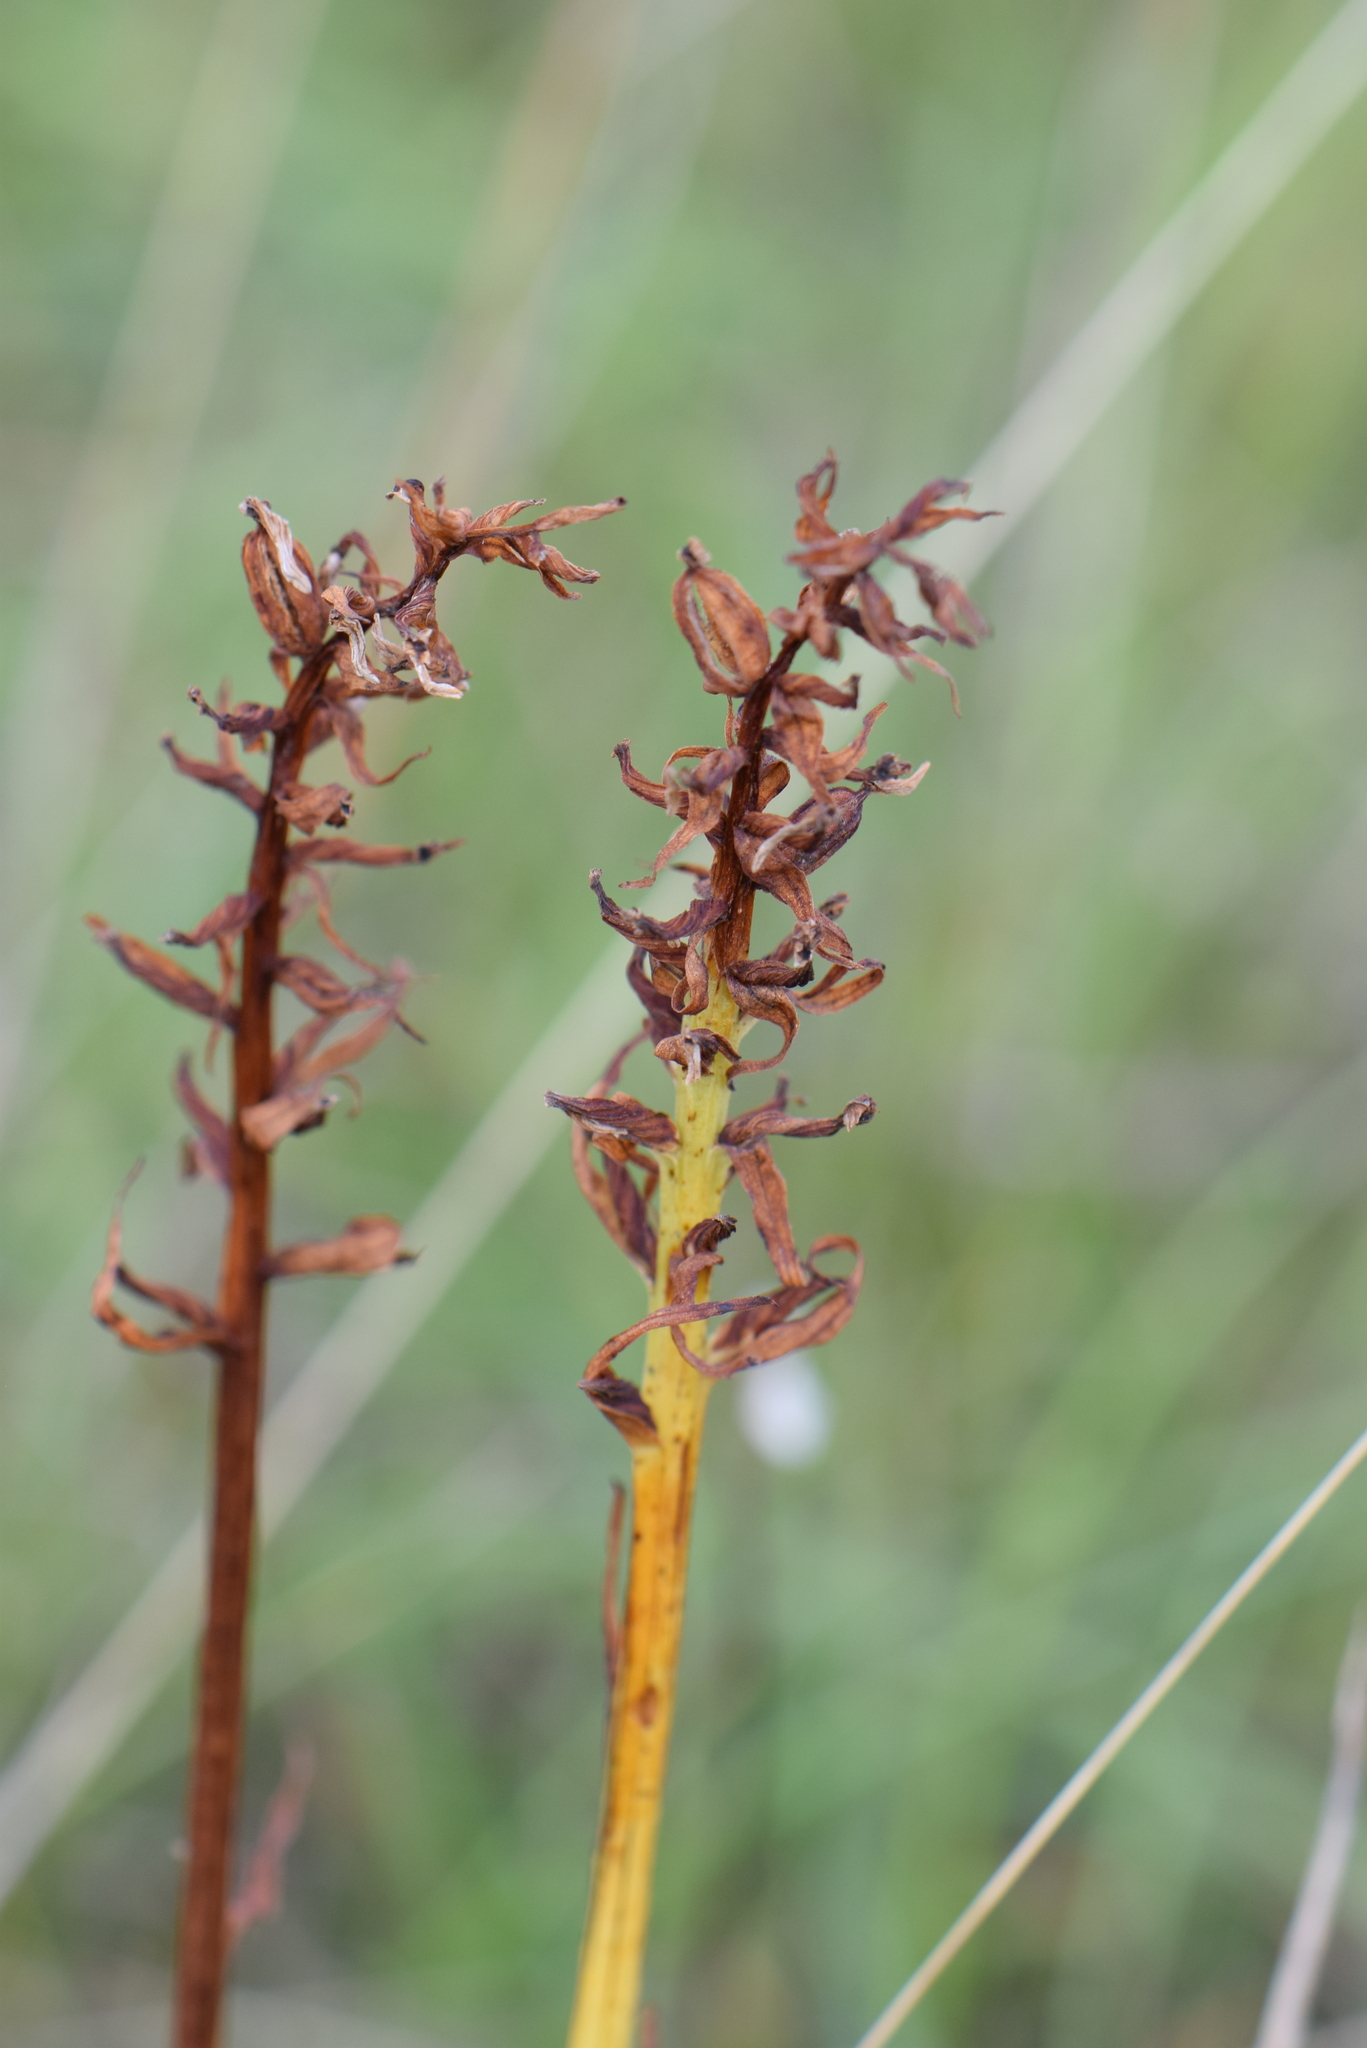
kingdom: Plantae
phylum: Tracheophyta
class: Liliopsida
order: Asparagales
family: Orchidaceae
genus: Anacamptis
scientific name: Anacamptis pyramidalis
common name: Pyramidal orchid
